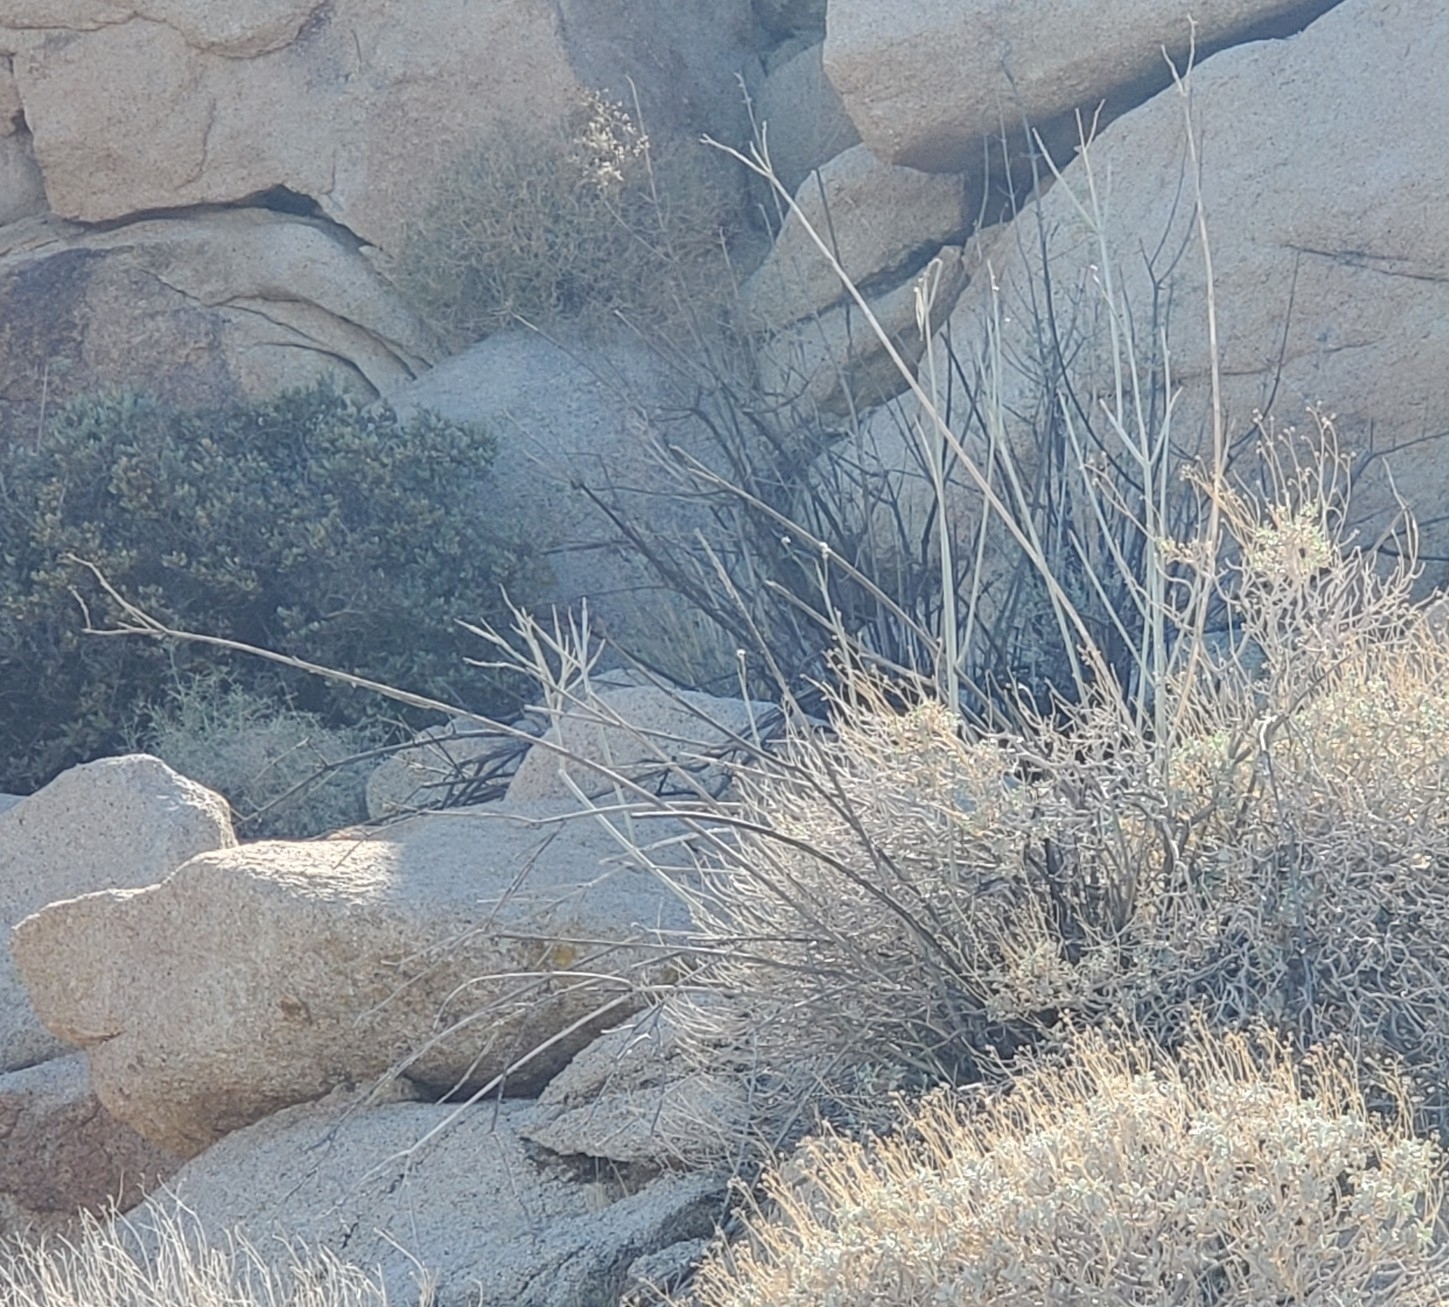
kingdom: Plantae
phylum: Tracheophyta
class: Magnoliopsida
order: Gentianales
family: Apocynaceae
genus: Asclepias
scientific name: Asclepias albicans
